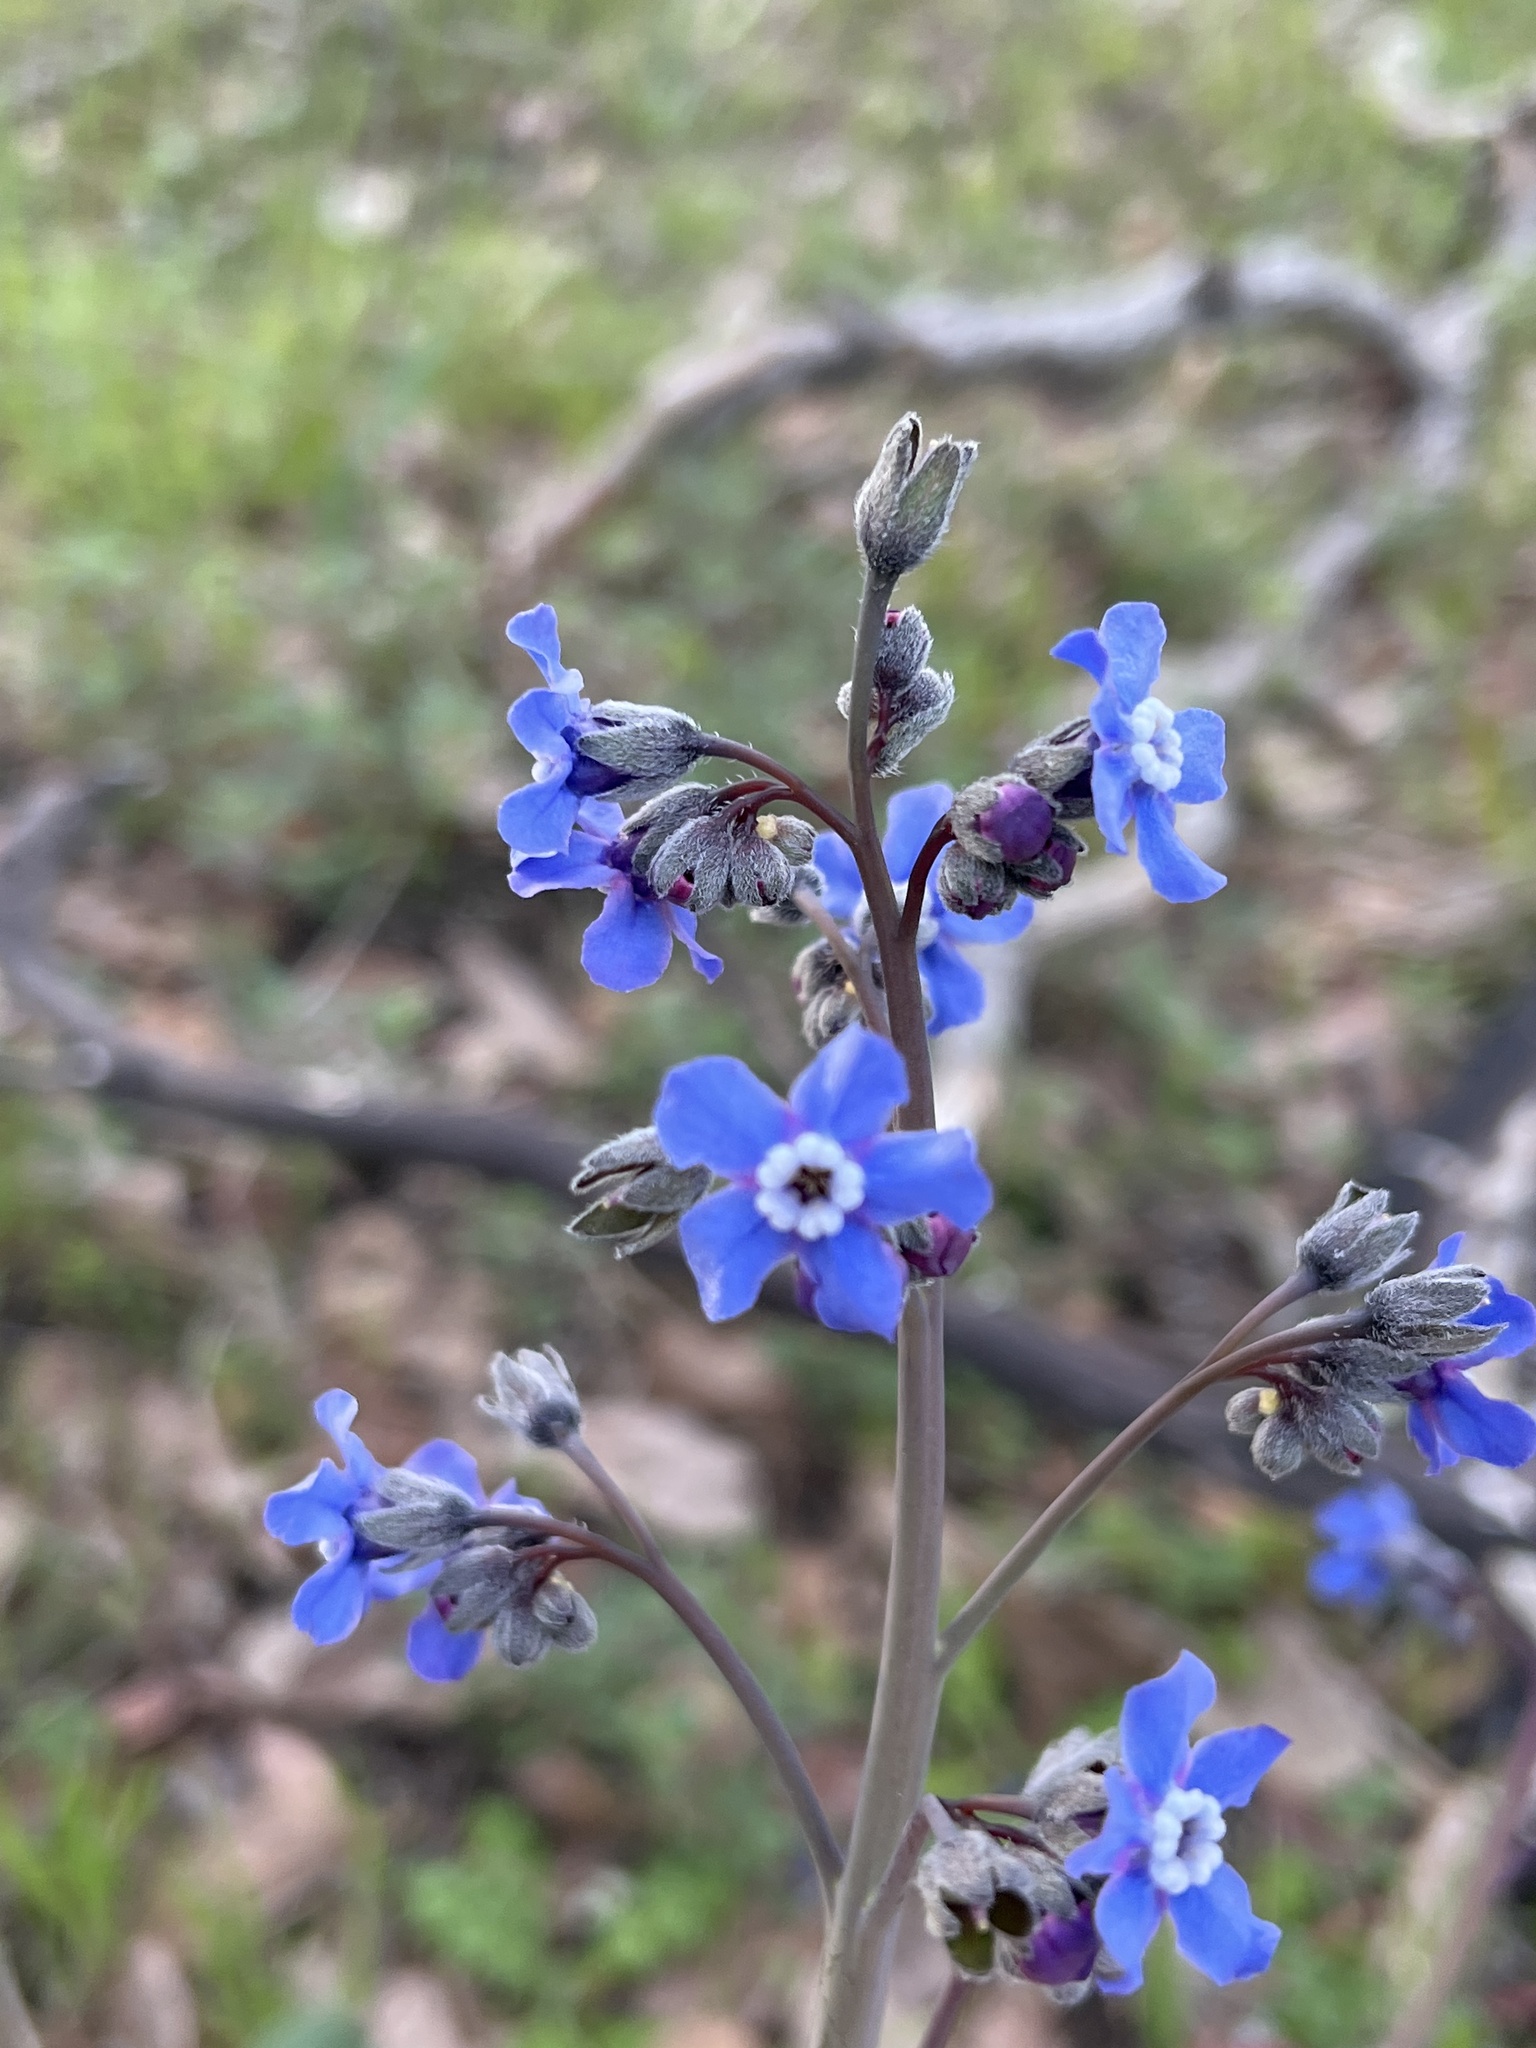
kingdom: Plantae
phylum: Tracheophyta
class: Magnoliopsida
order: Boraginales
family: Boraginaceae
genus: Adelinia
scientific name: Adelinia grande
